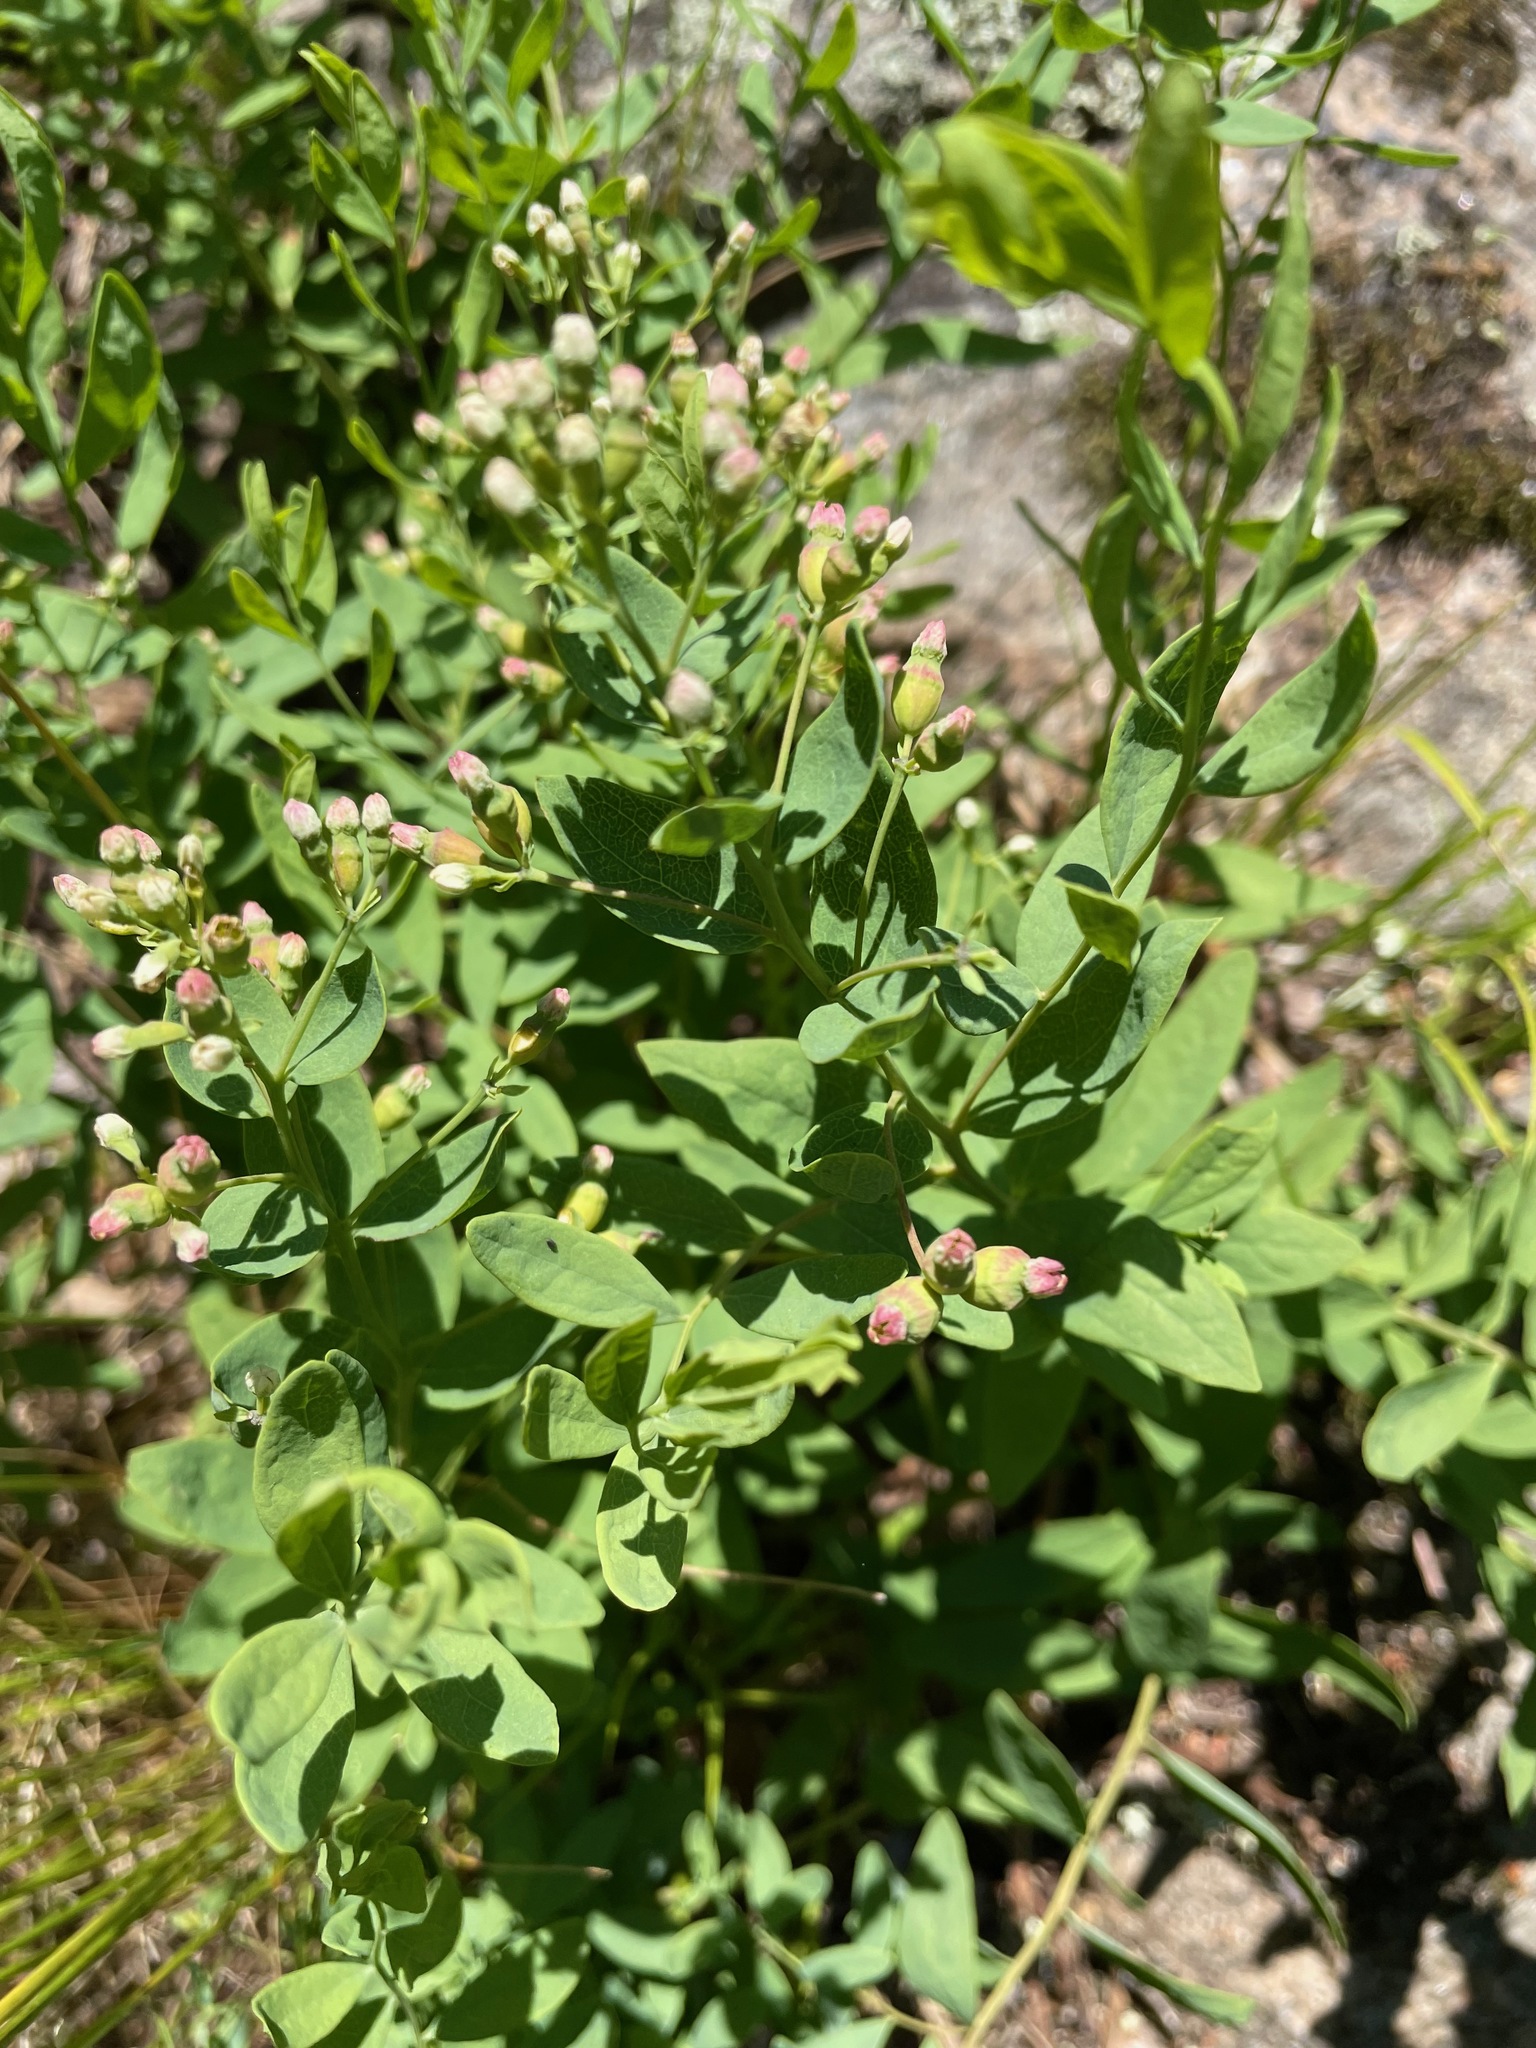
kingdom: Plantae
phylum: Tracheophyta
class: Magnoliopsida
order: Santalales
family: Comandraceae
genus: Comandra
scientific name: Comandra umbellata
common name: Bastard toadflax
